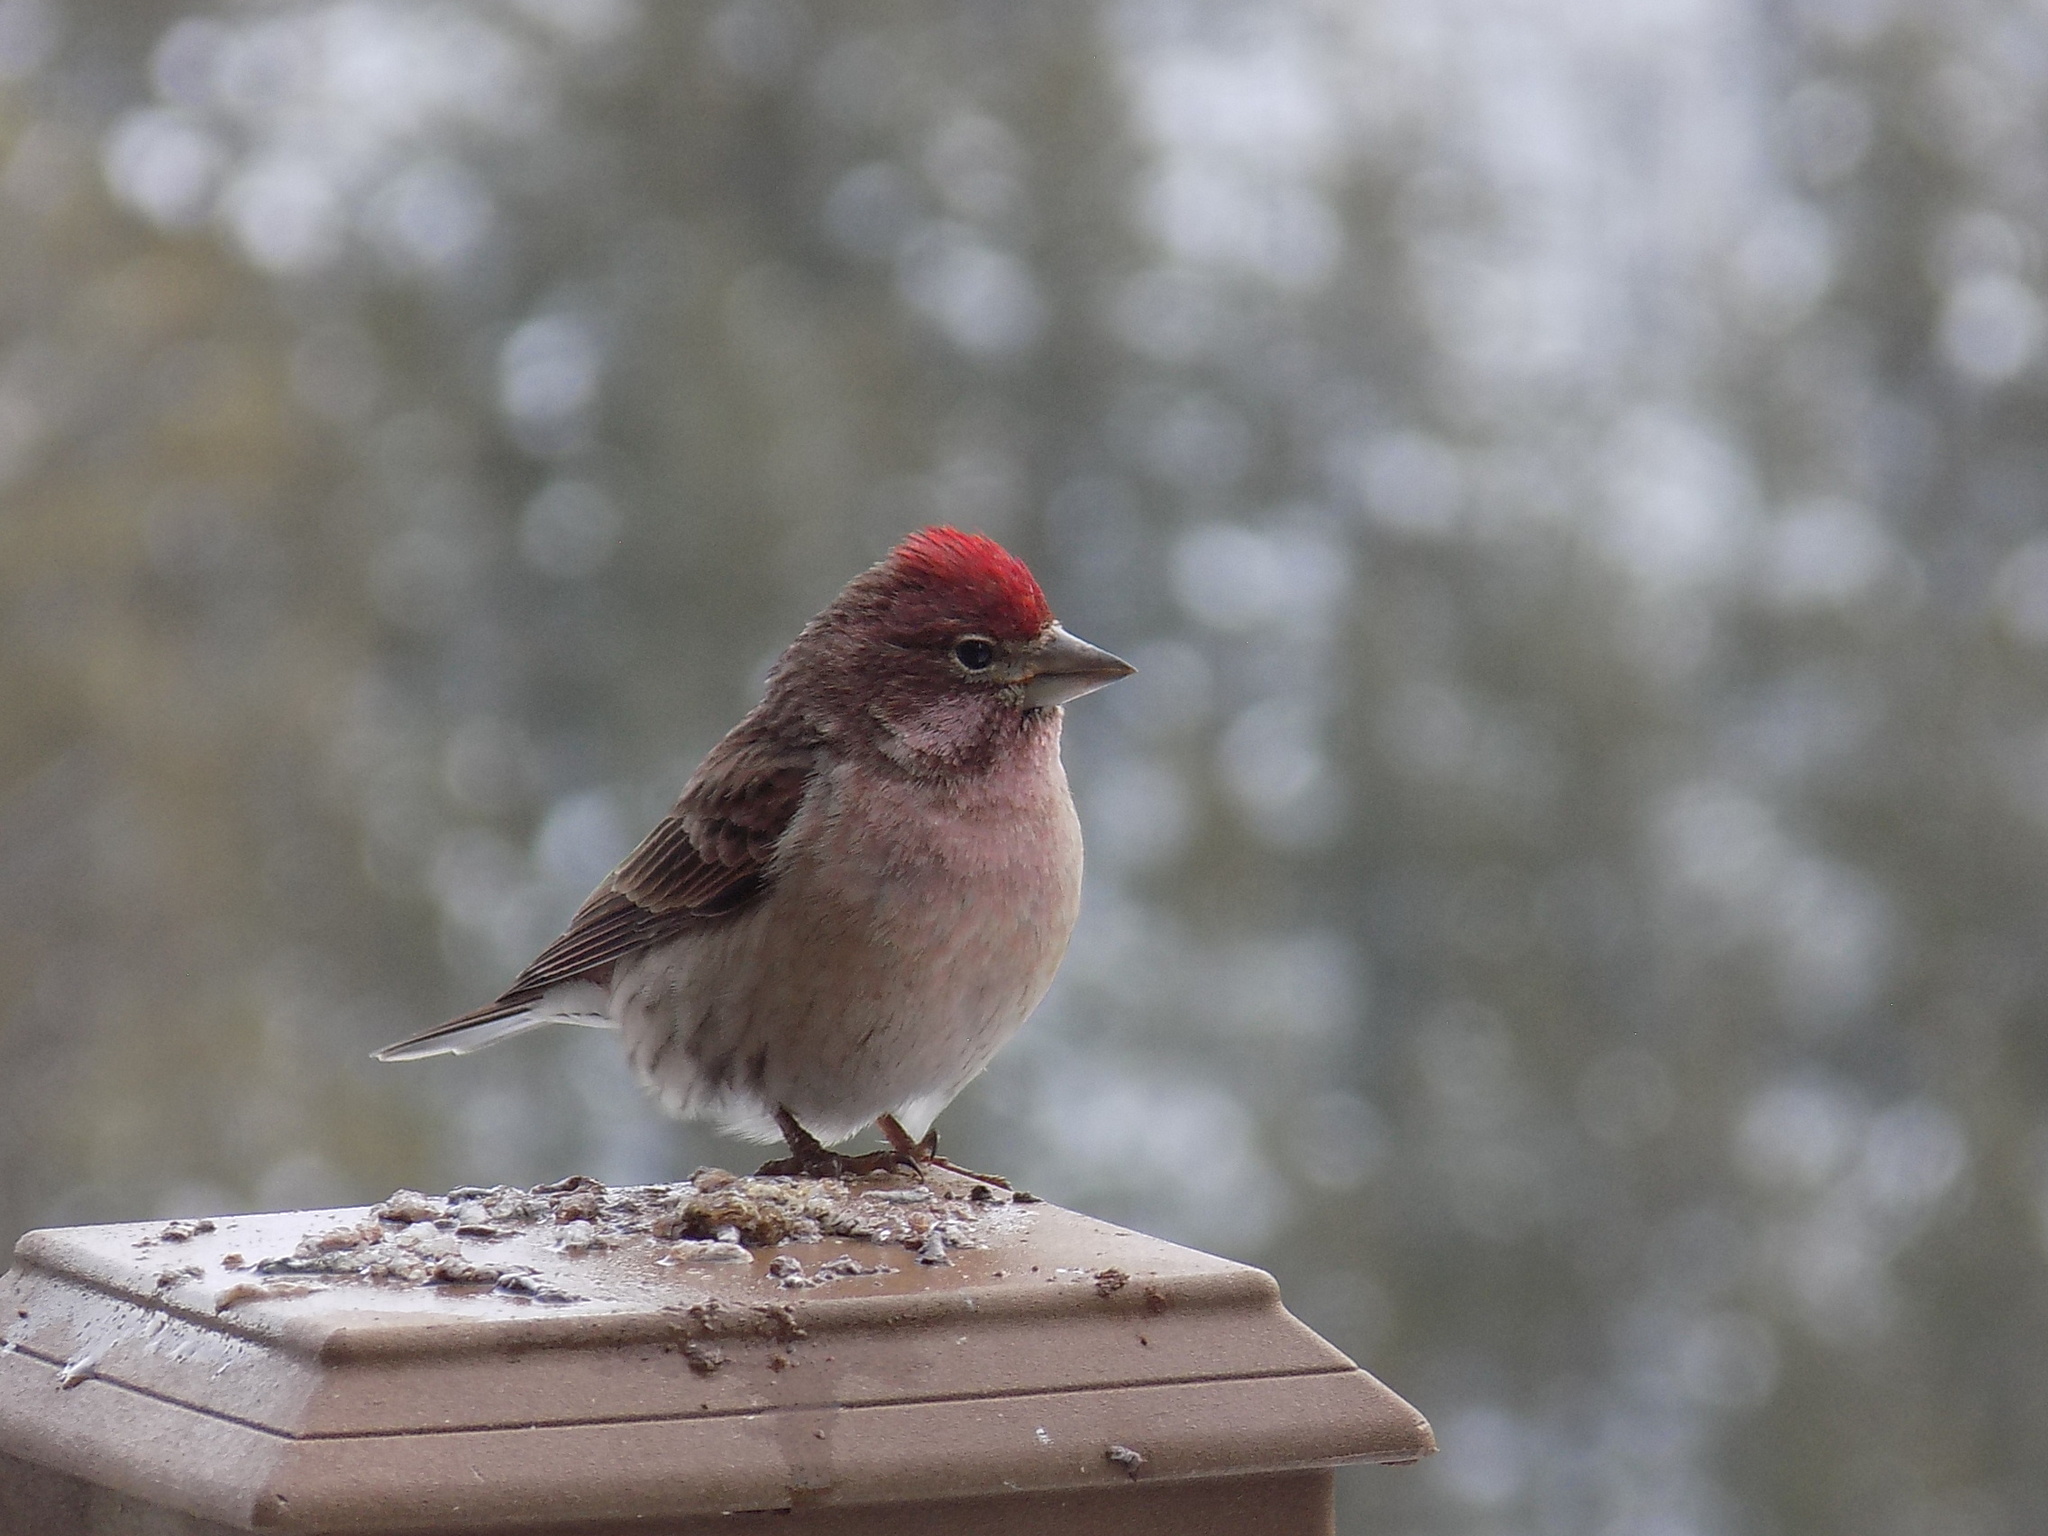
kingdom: Animalia
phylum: Chordata
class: Aves
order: Passeriformes
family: Fringillidae
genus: Haemorhous
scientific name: Haemorhous cassinii
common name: Cassin's finch
